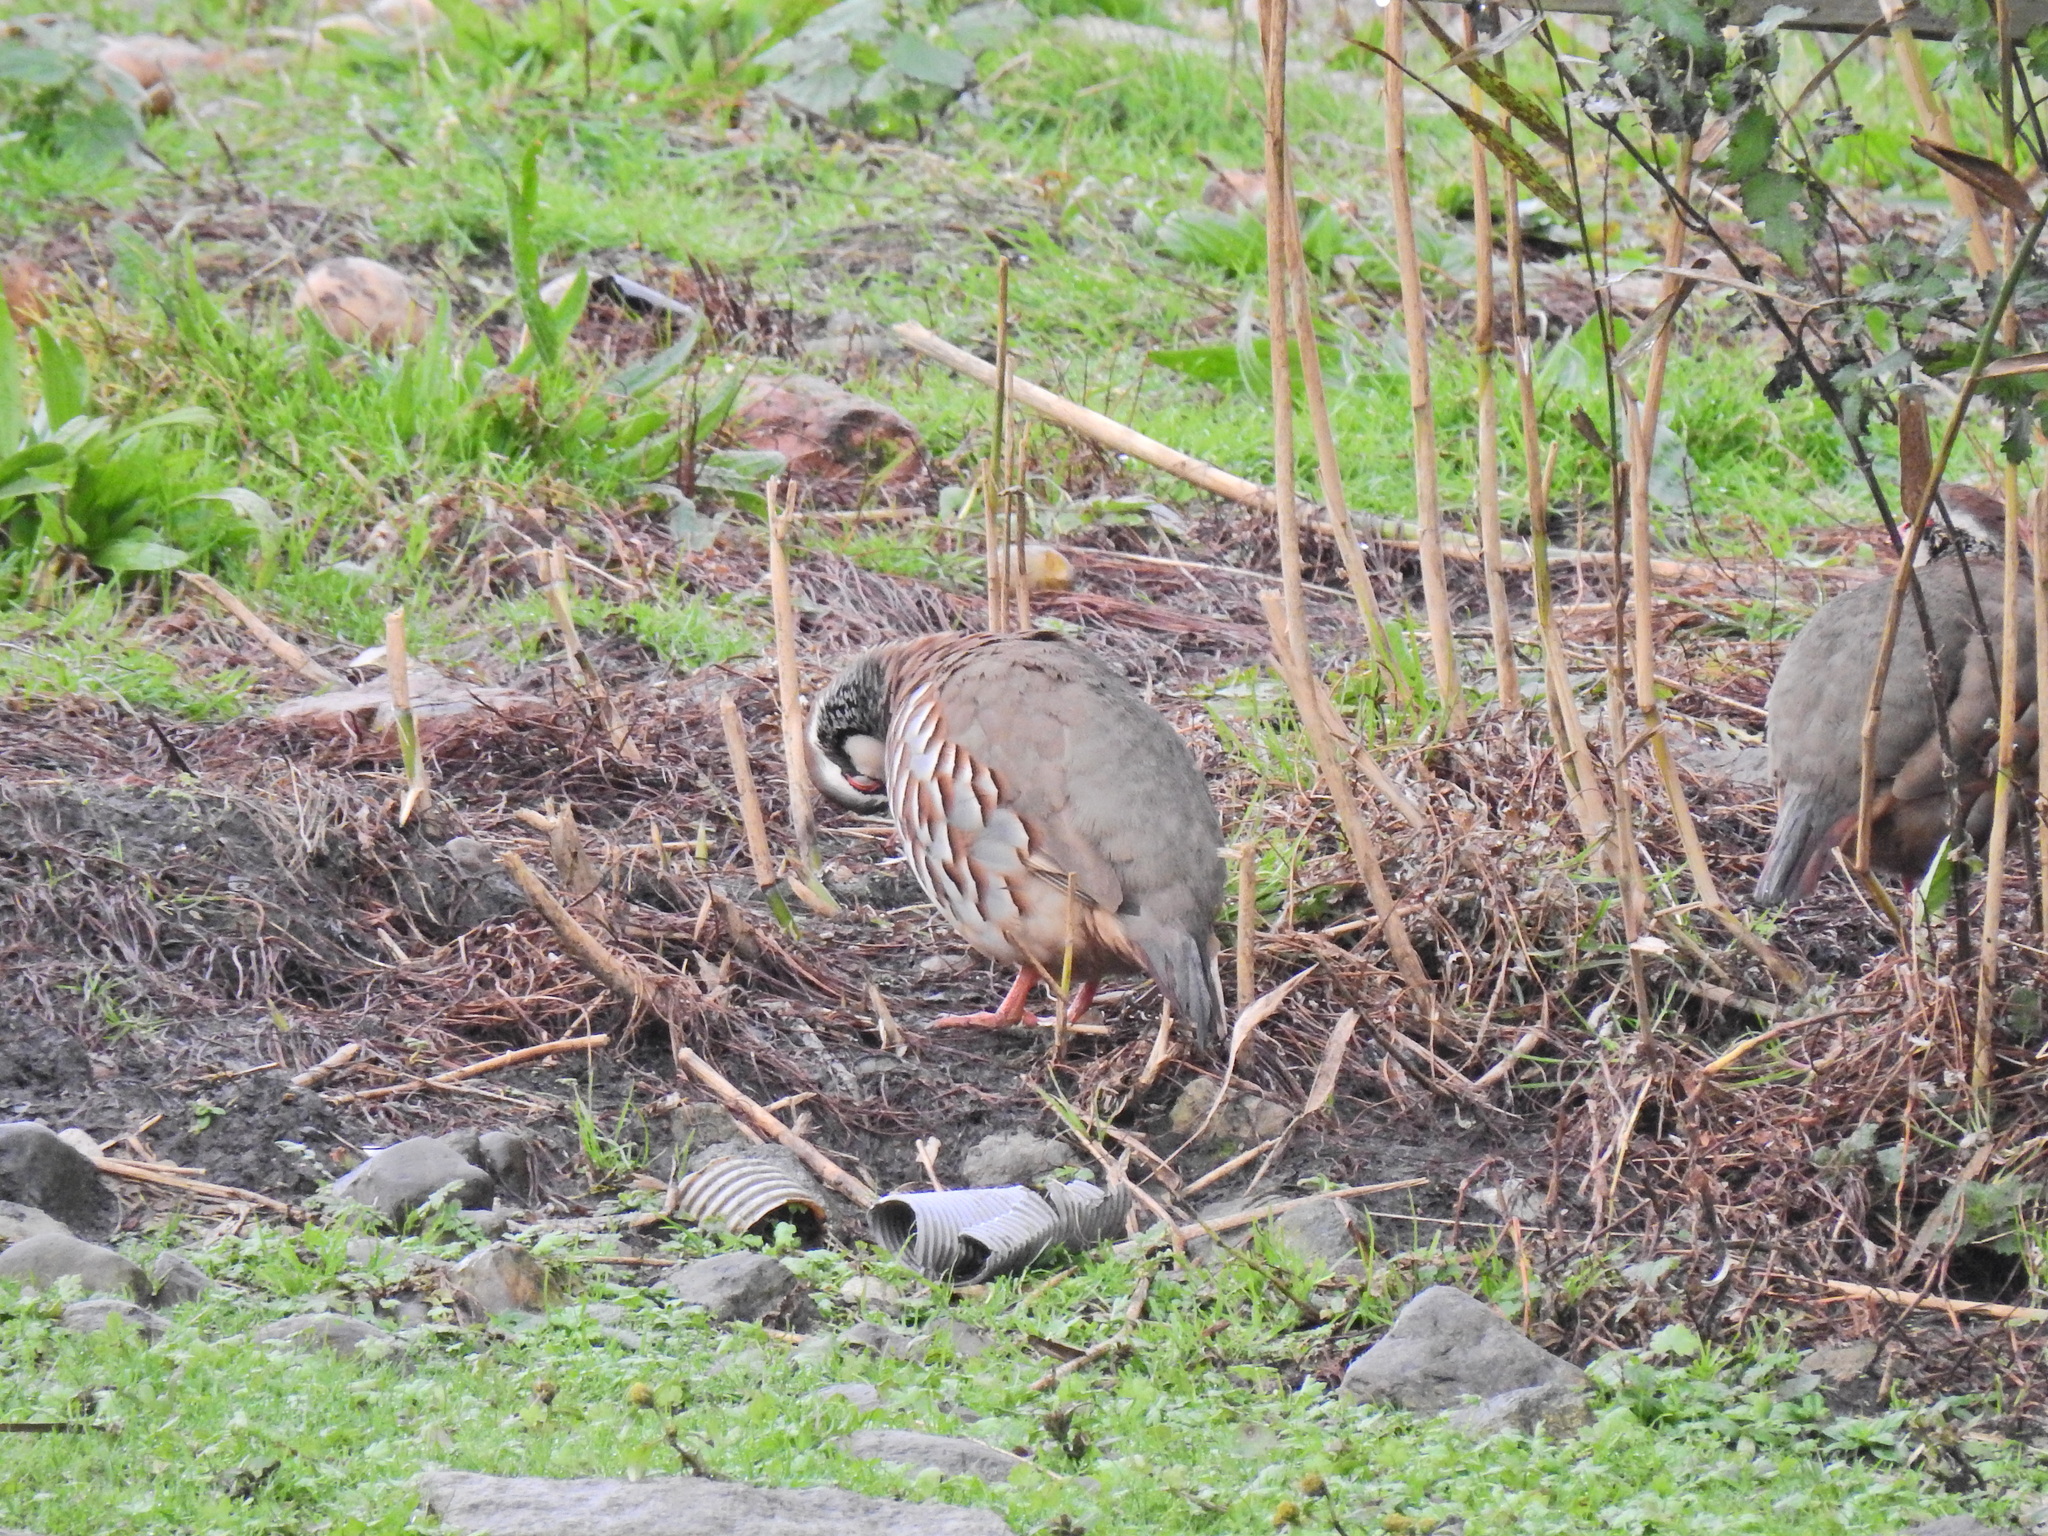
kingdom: Animalia
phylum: Chordata
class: Aves
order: Galliformes
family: Phasianidae
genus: Alectoris
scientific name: Alectoris rufa
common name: Red-legged partridge
